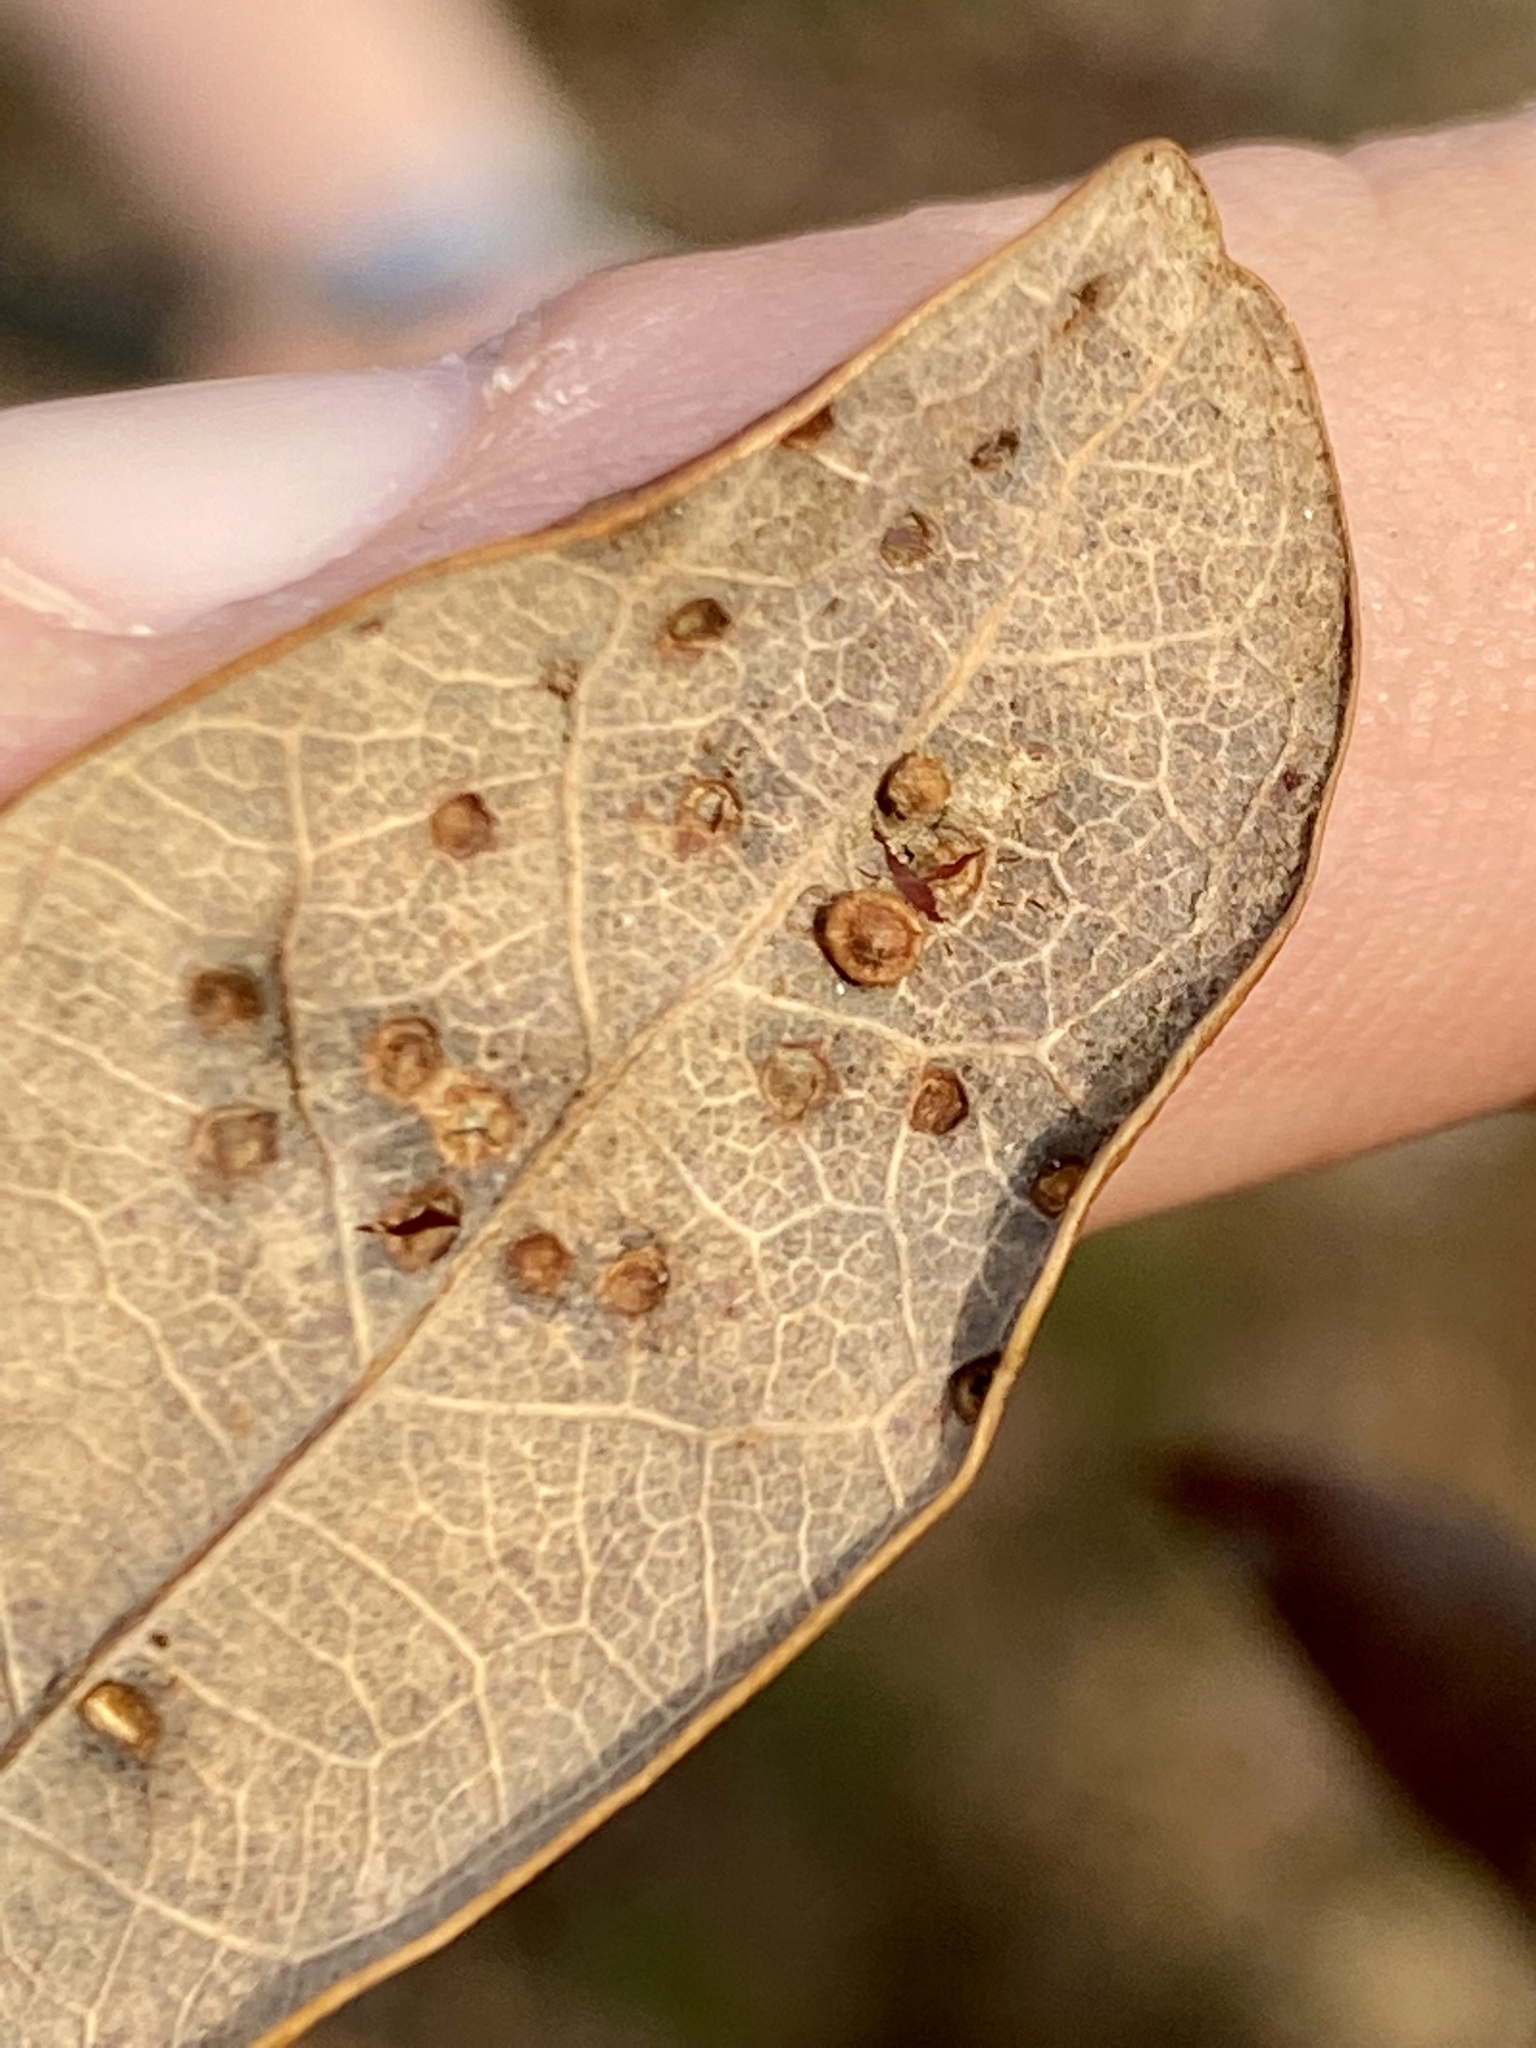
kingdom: Animalia
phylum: Arthropoda
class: Insecta
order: Hymenoptera
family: Cynipidae
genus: Neuroterus
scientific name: Neuroterus
